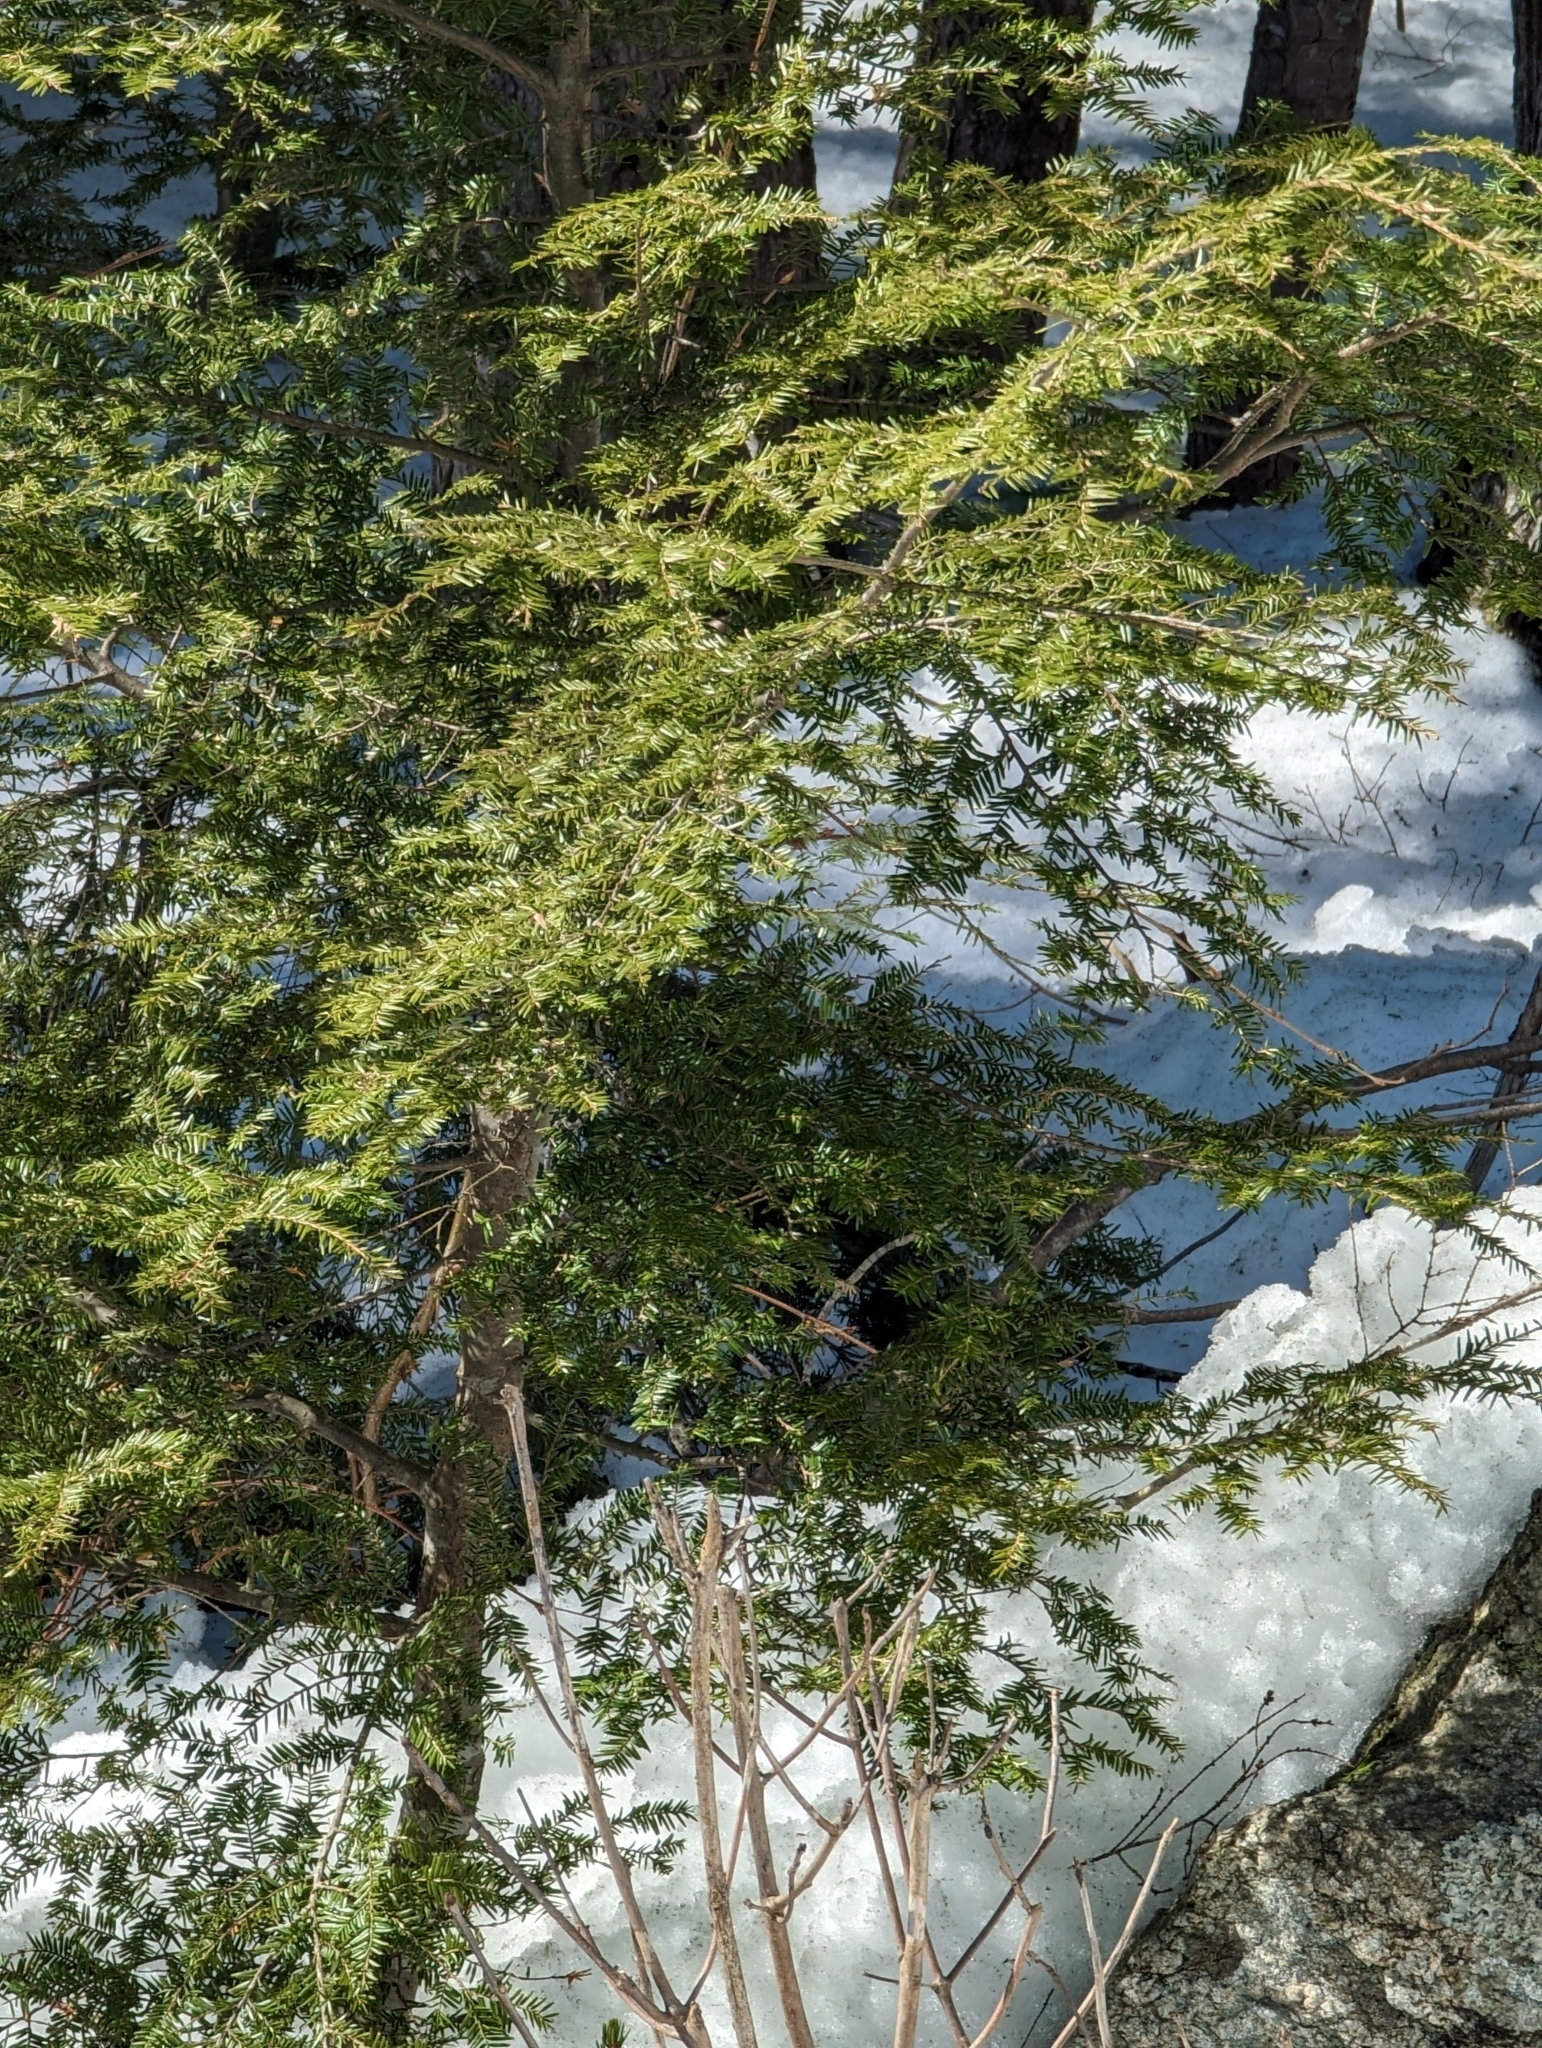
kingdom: Plantae
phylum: Tracheophyta
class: Pinopsida
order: Pinales
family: Pinaceae
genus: Tsuga
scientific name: Tsuga canadensis
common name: Eastern hemlock
